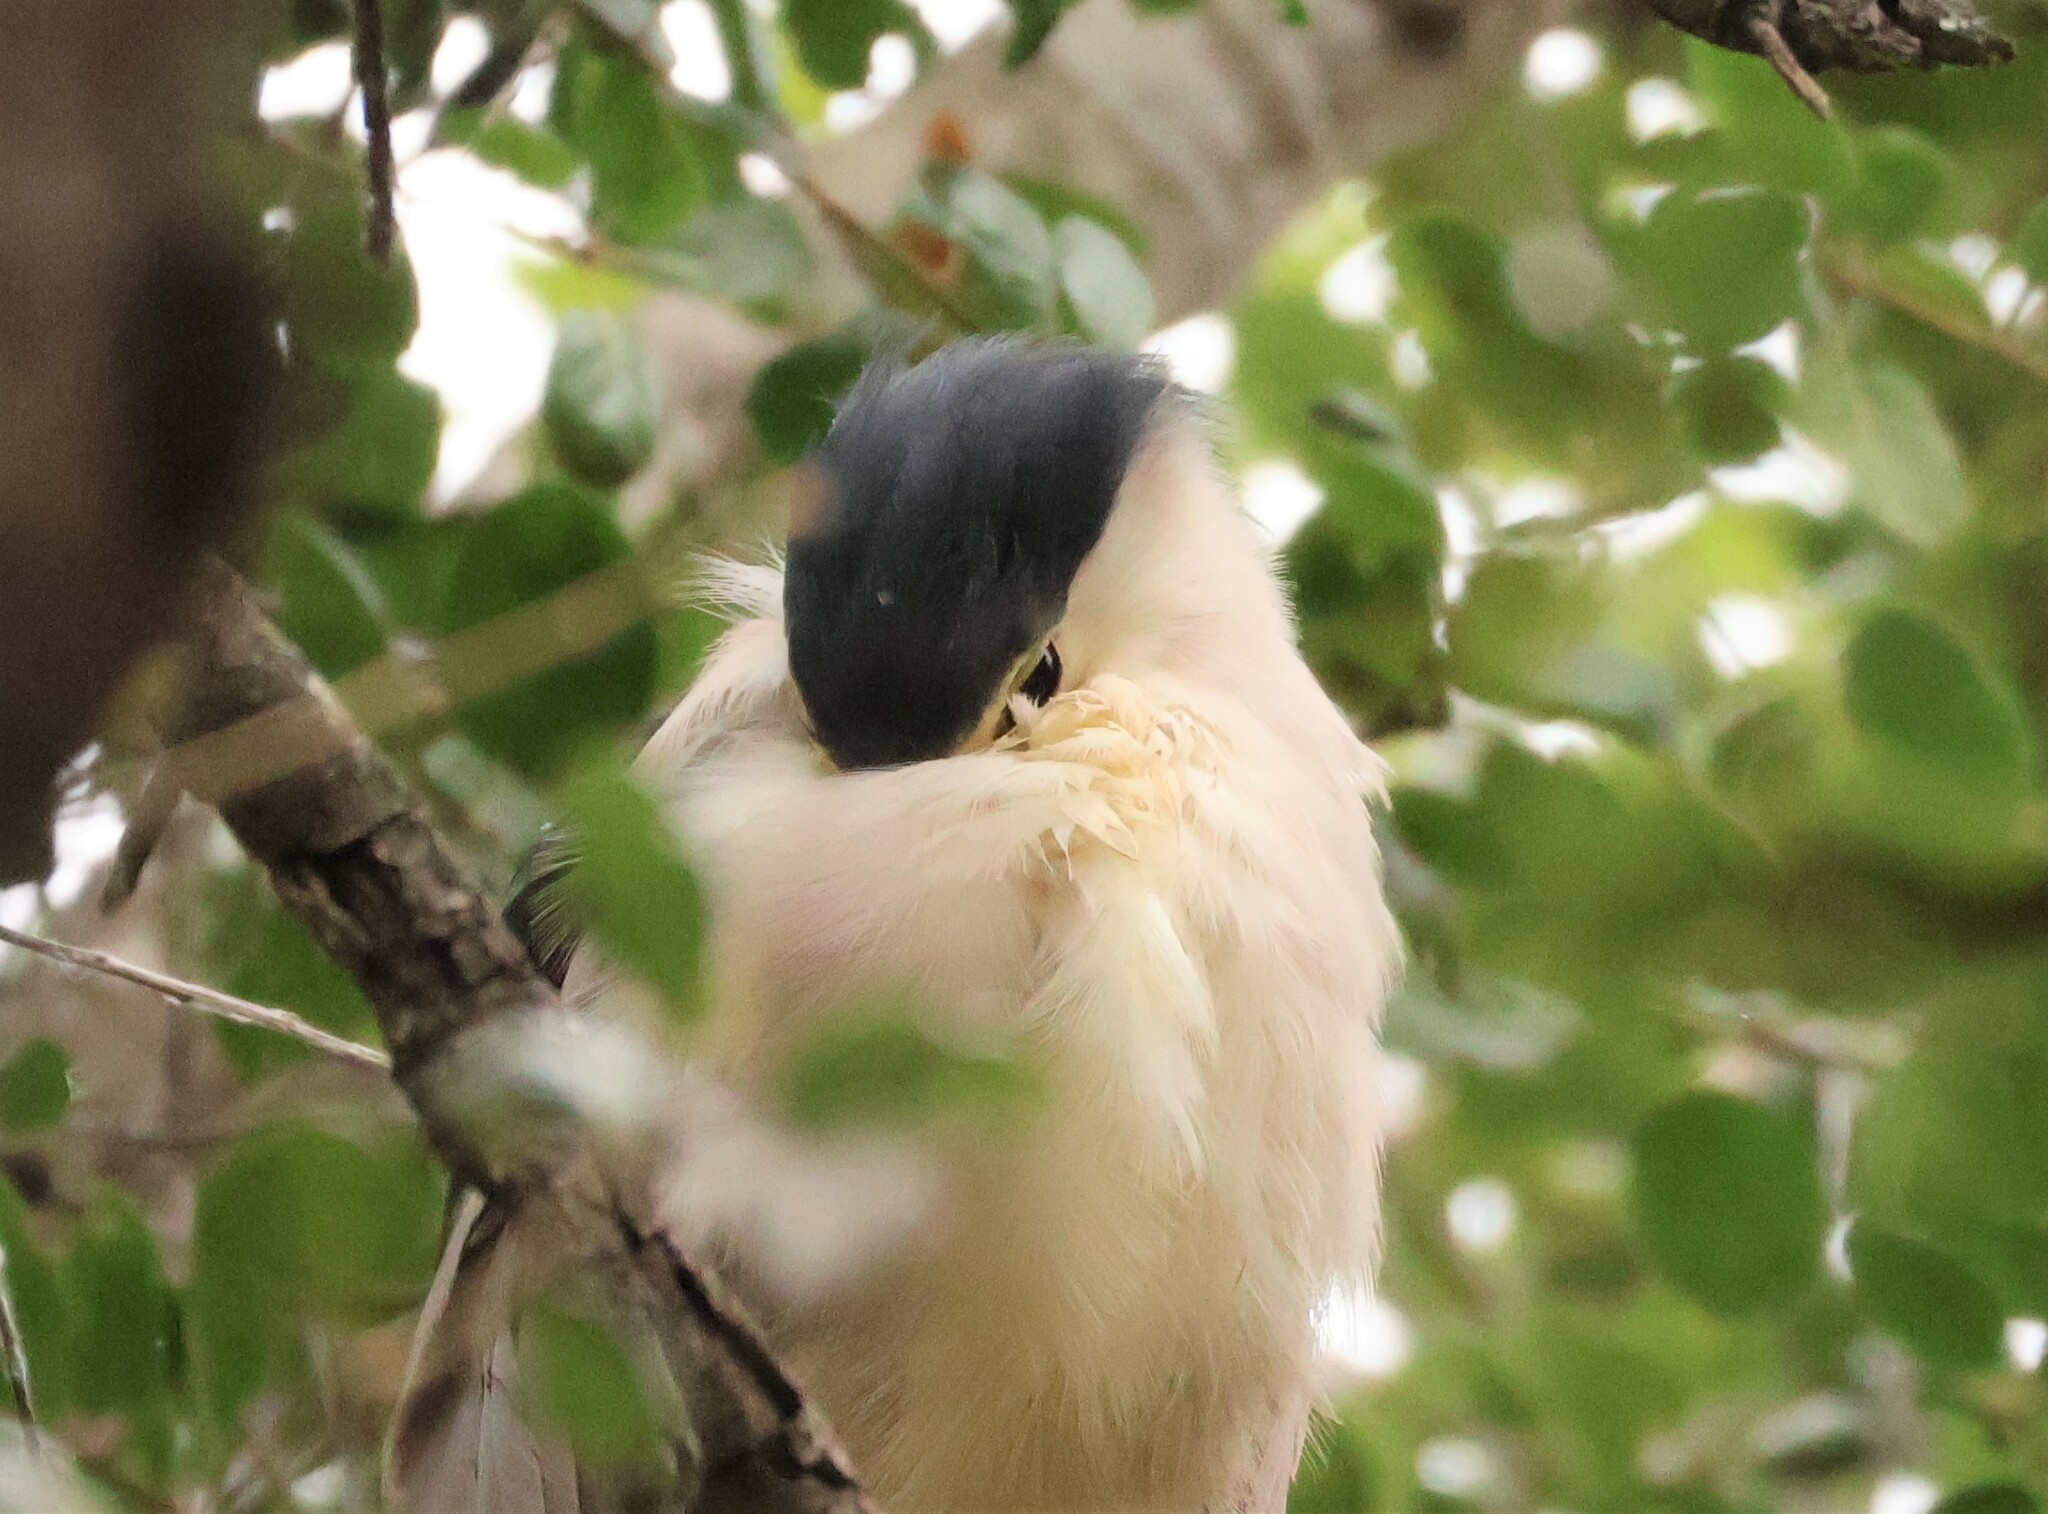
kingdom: Animalia
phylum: Chordata
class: Aves
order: Pelecaniformes
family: Ardeidae
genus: Nycticorax
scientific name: Nycticorax nycticorax
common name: Black-crowned night heron
